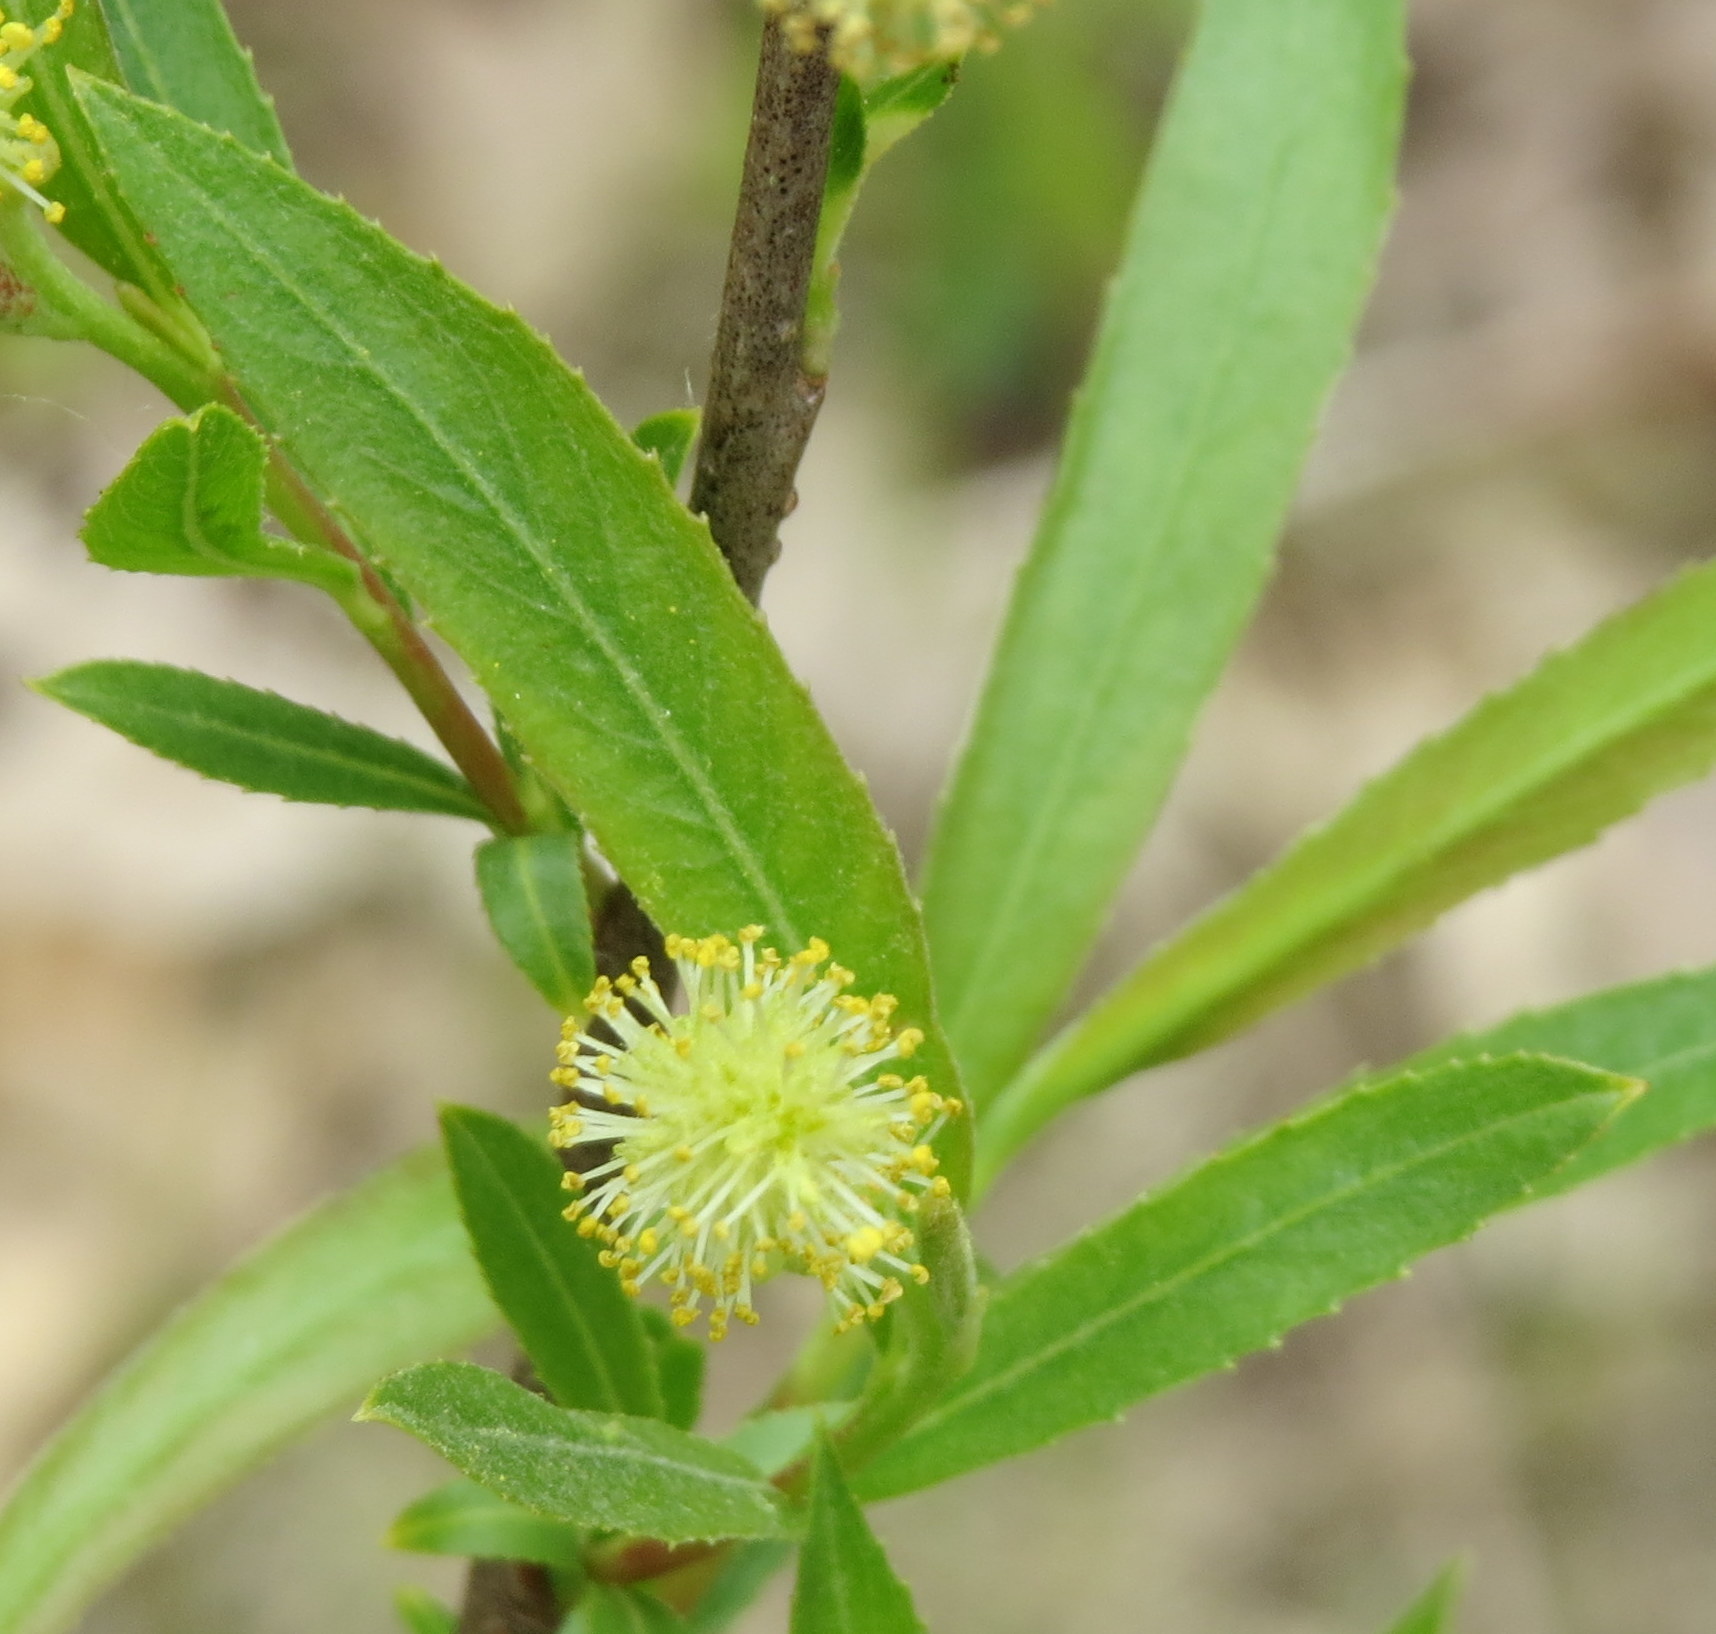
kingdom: Plantae
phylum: Tracheophyta
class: Magnoliopsida
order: Malpighiales
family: Salicaceae
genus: Salix
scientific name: Salix interior
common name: Sandbar willow
